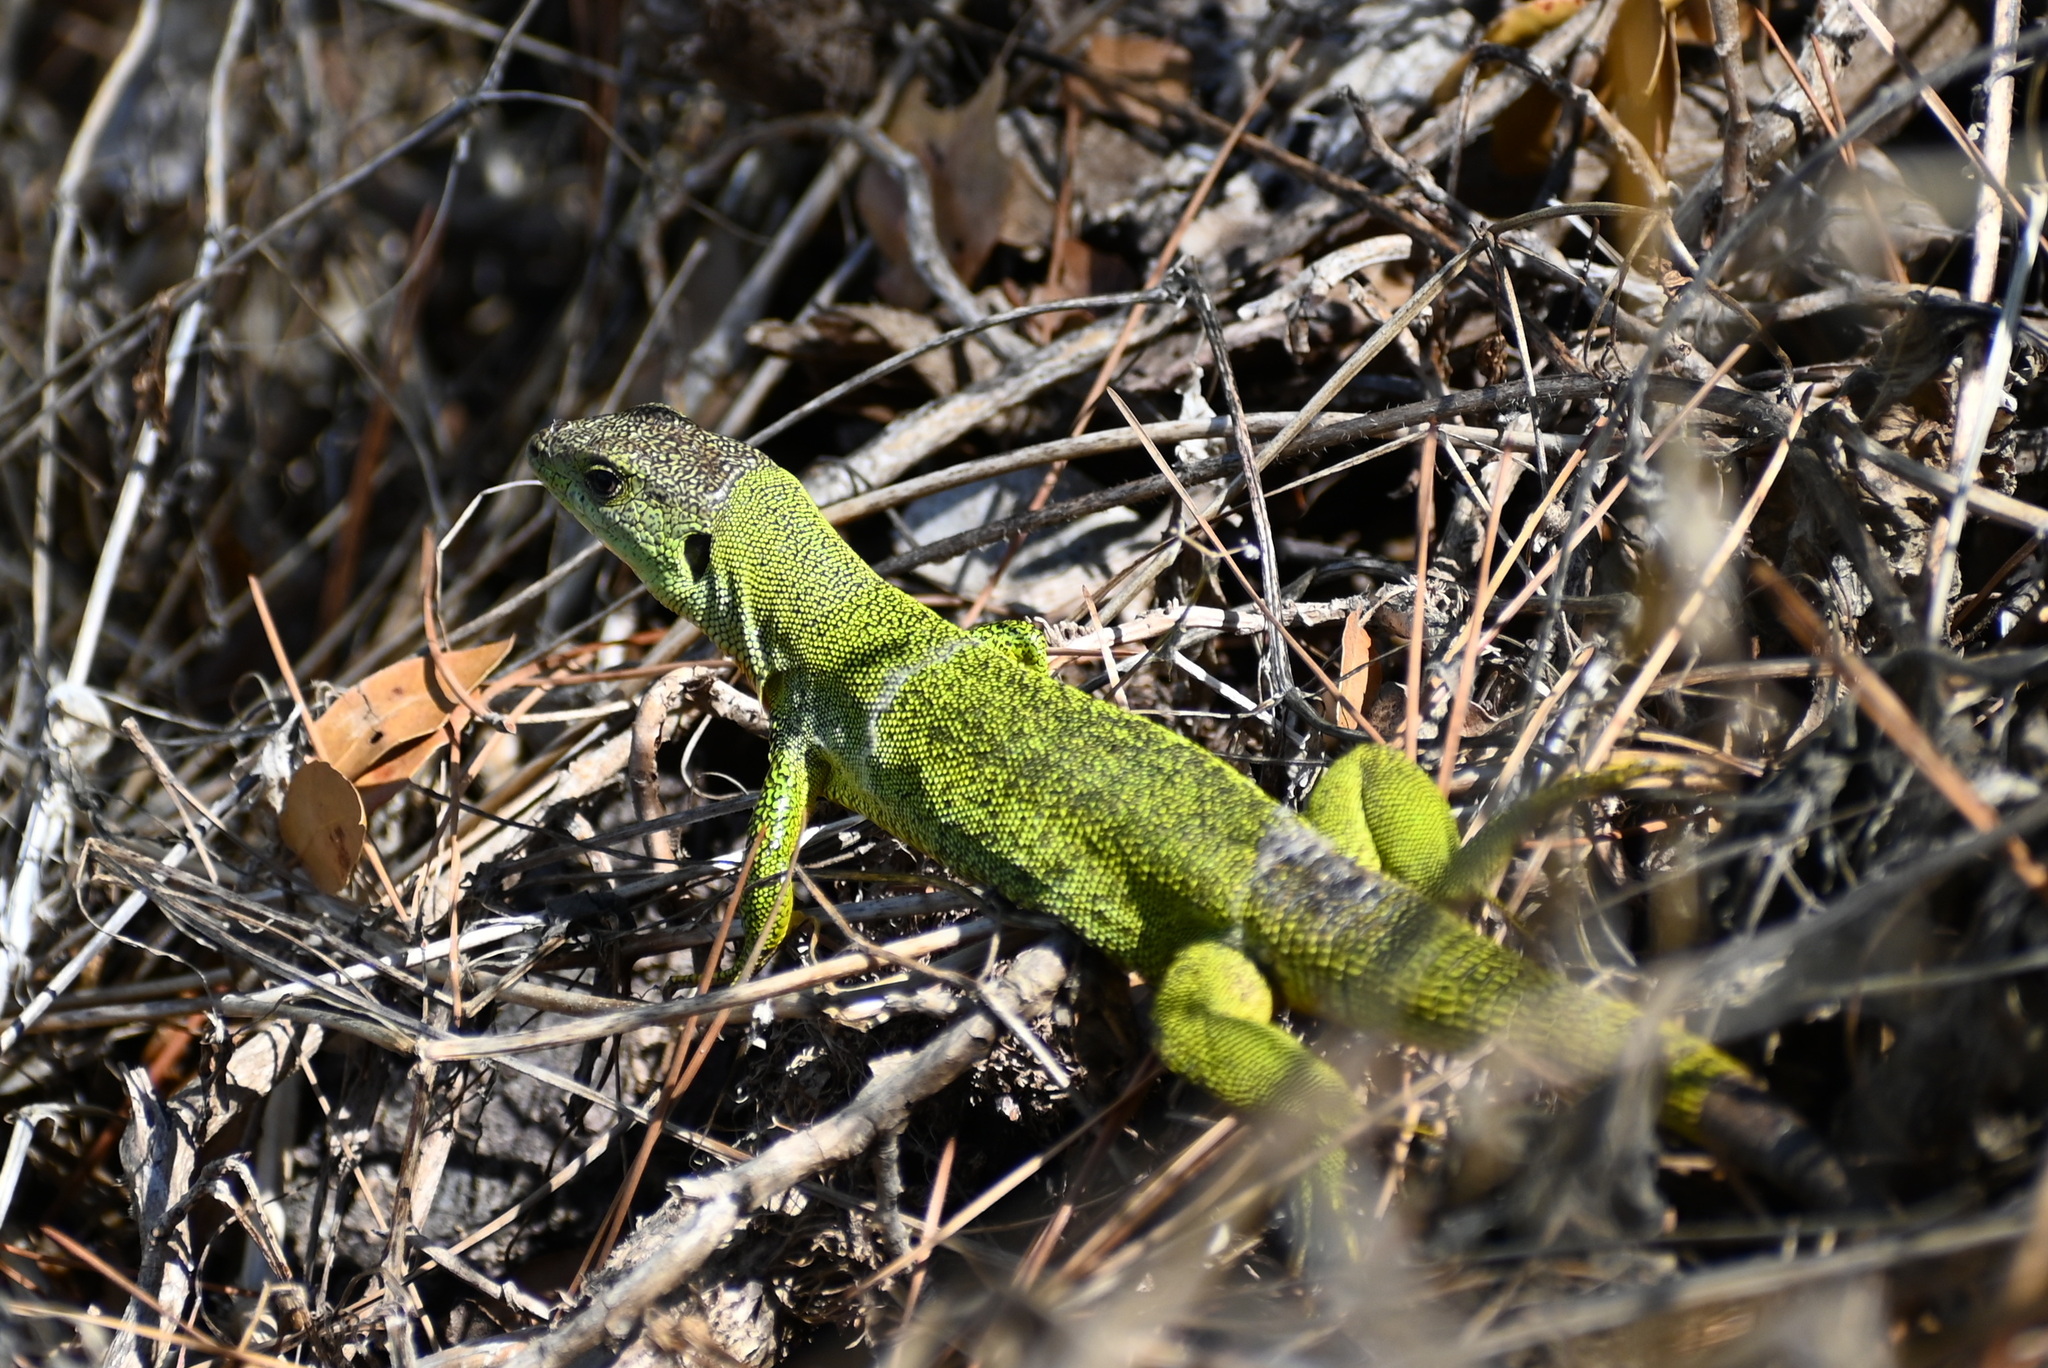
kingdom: Animalia
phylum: Chordata
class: Squamata
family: Lacertidae
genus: Lacerta
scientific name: Lacerta trilineata
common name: Balkan green lizard
